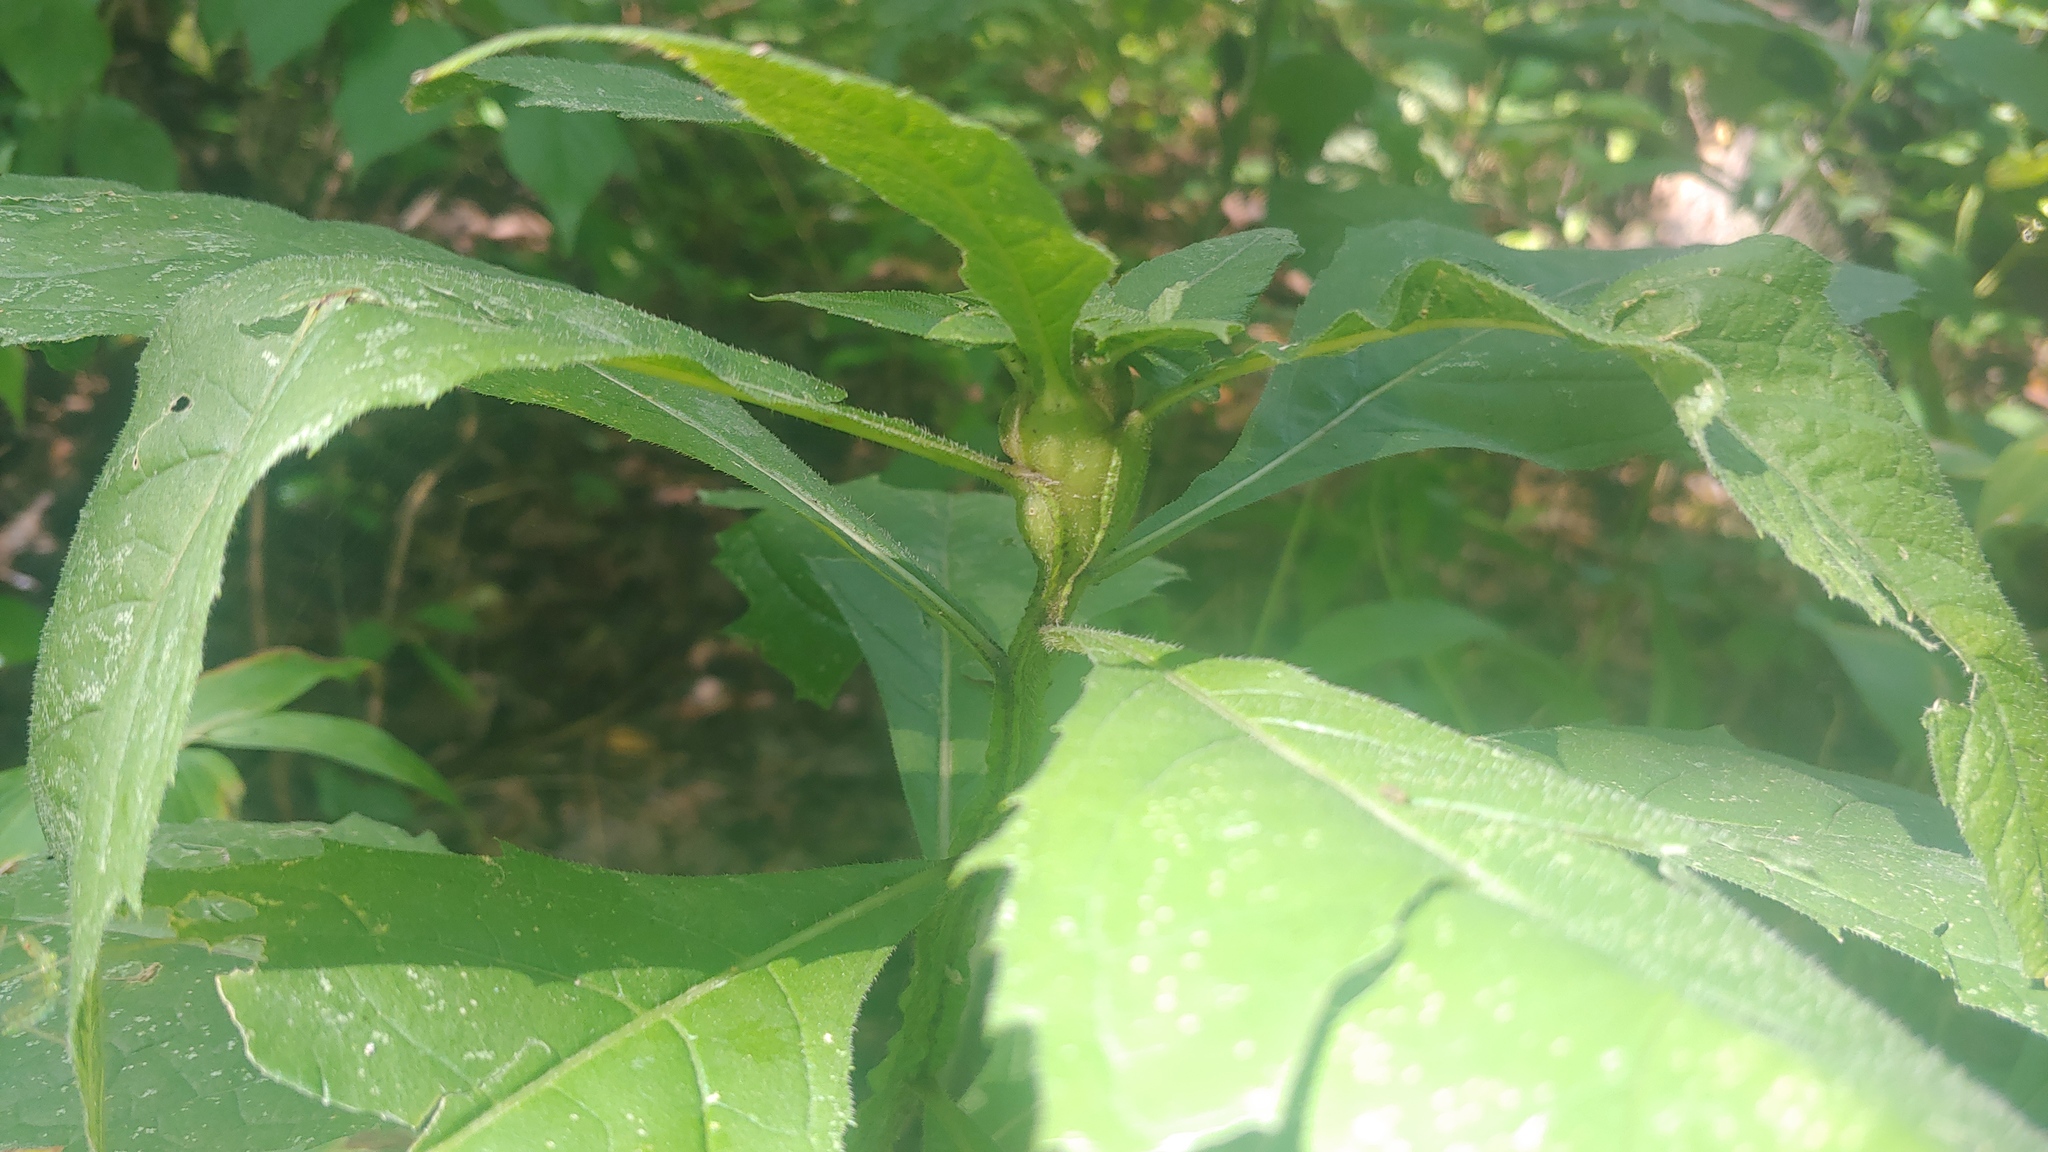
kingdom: Animalia
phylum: Arthropoda
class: Insecta
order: Diptera
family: Cecidomyiidae
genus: Neolasioptera
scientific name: Neolasioptera verbesinae
